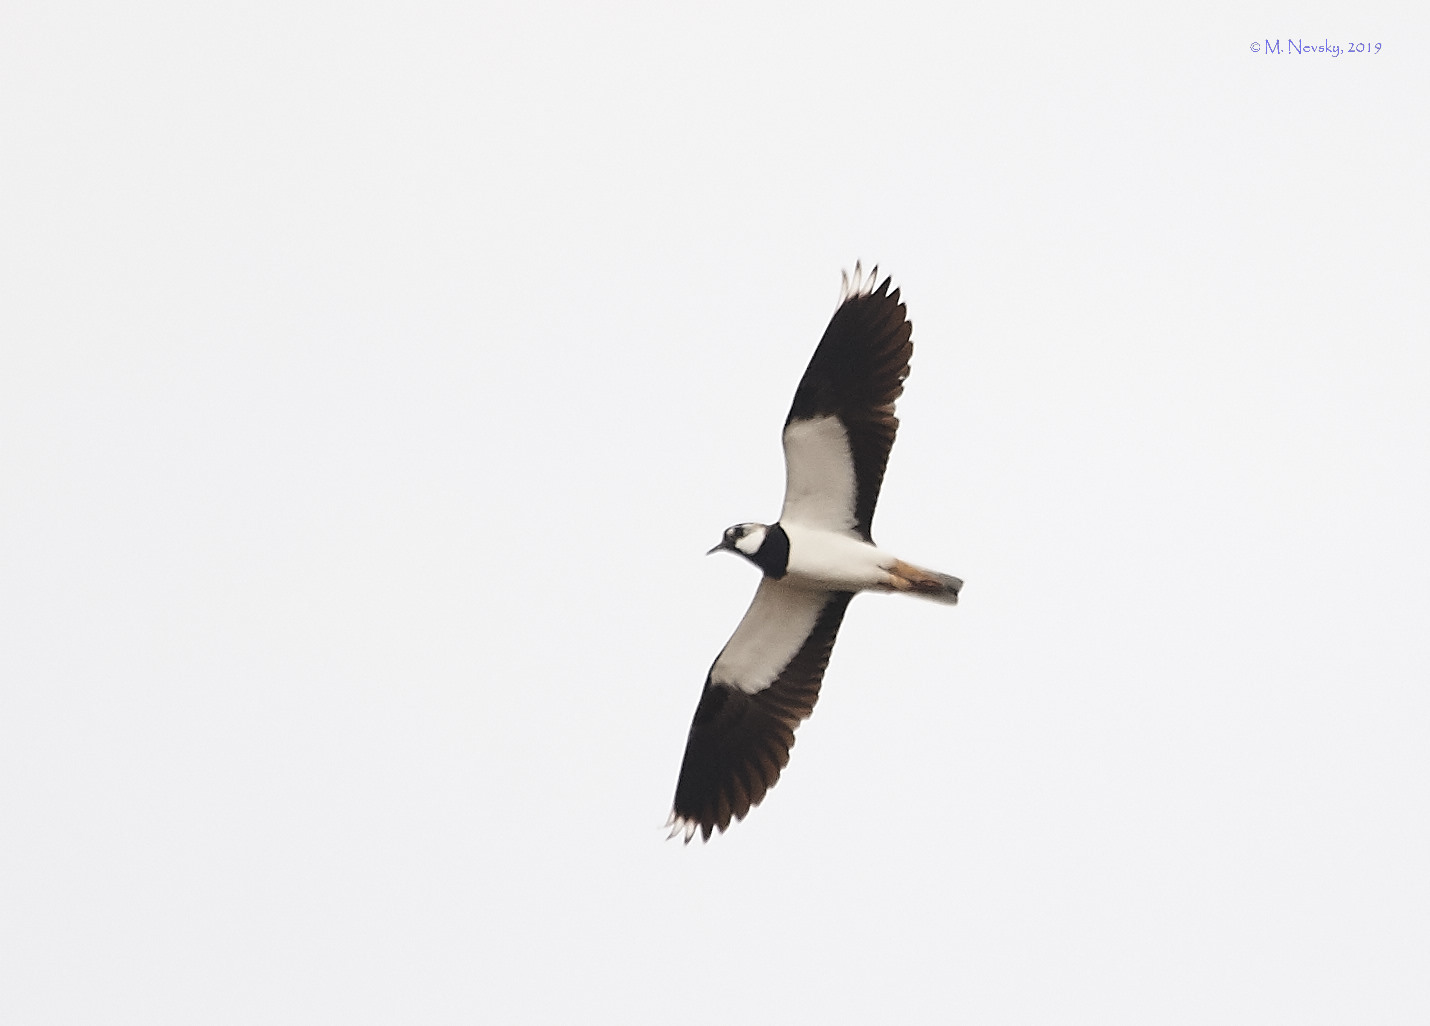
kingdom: Animalia
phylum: Chordata
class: Aves
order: Charadriiformes
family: Charadriidae
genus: Vanellus
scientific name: Vanellus vanellus
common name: Northern lapwing
